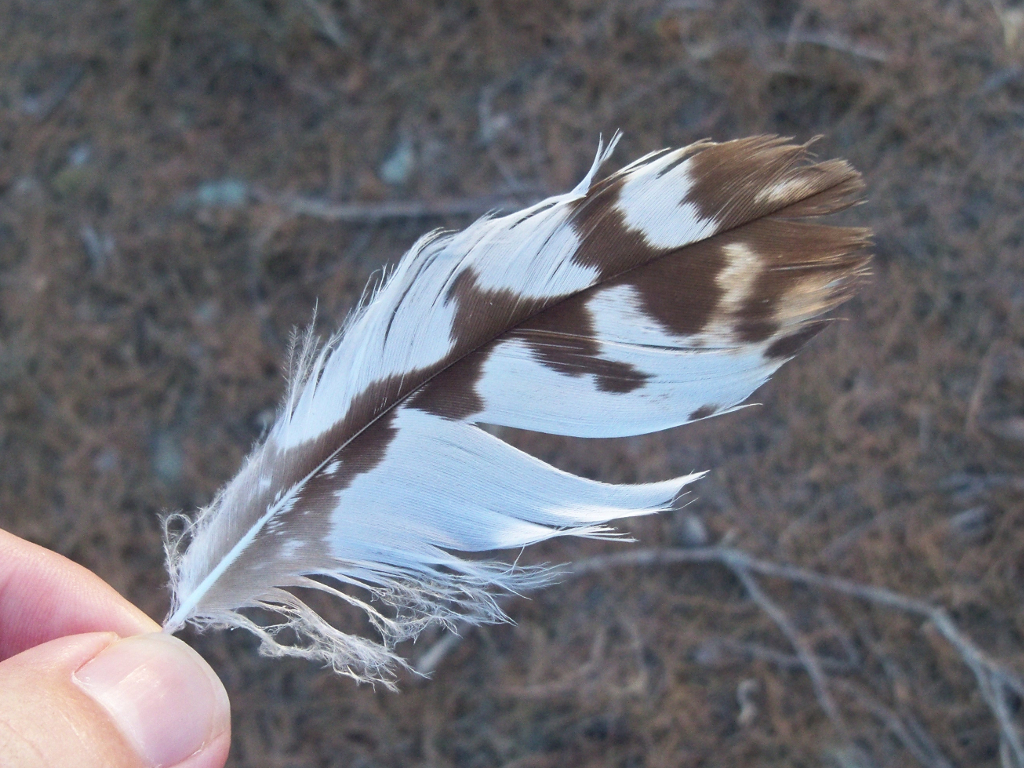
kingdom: Animalia
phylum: Chordata
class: Aves
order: Accipitriformes
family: Accipitridae
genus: Buteo
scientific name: Buteo buteo
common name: Common buzzard
